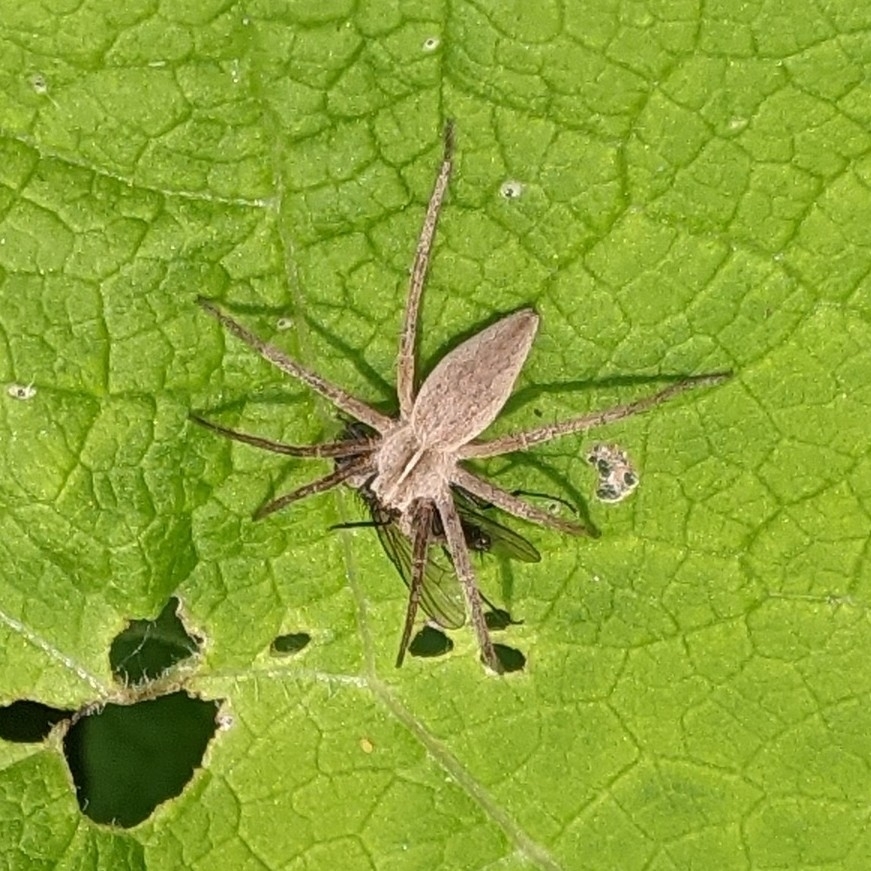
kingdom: Animalia
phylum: Arthropoda
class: Arachnida
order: Araneae
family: Pisauridae
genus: Pisaura
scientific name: Pisaura mirabilis
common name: Tent spider
